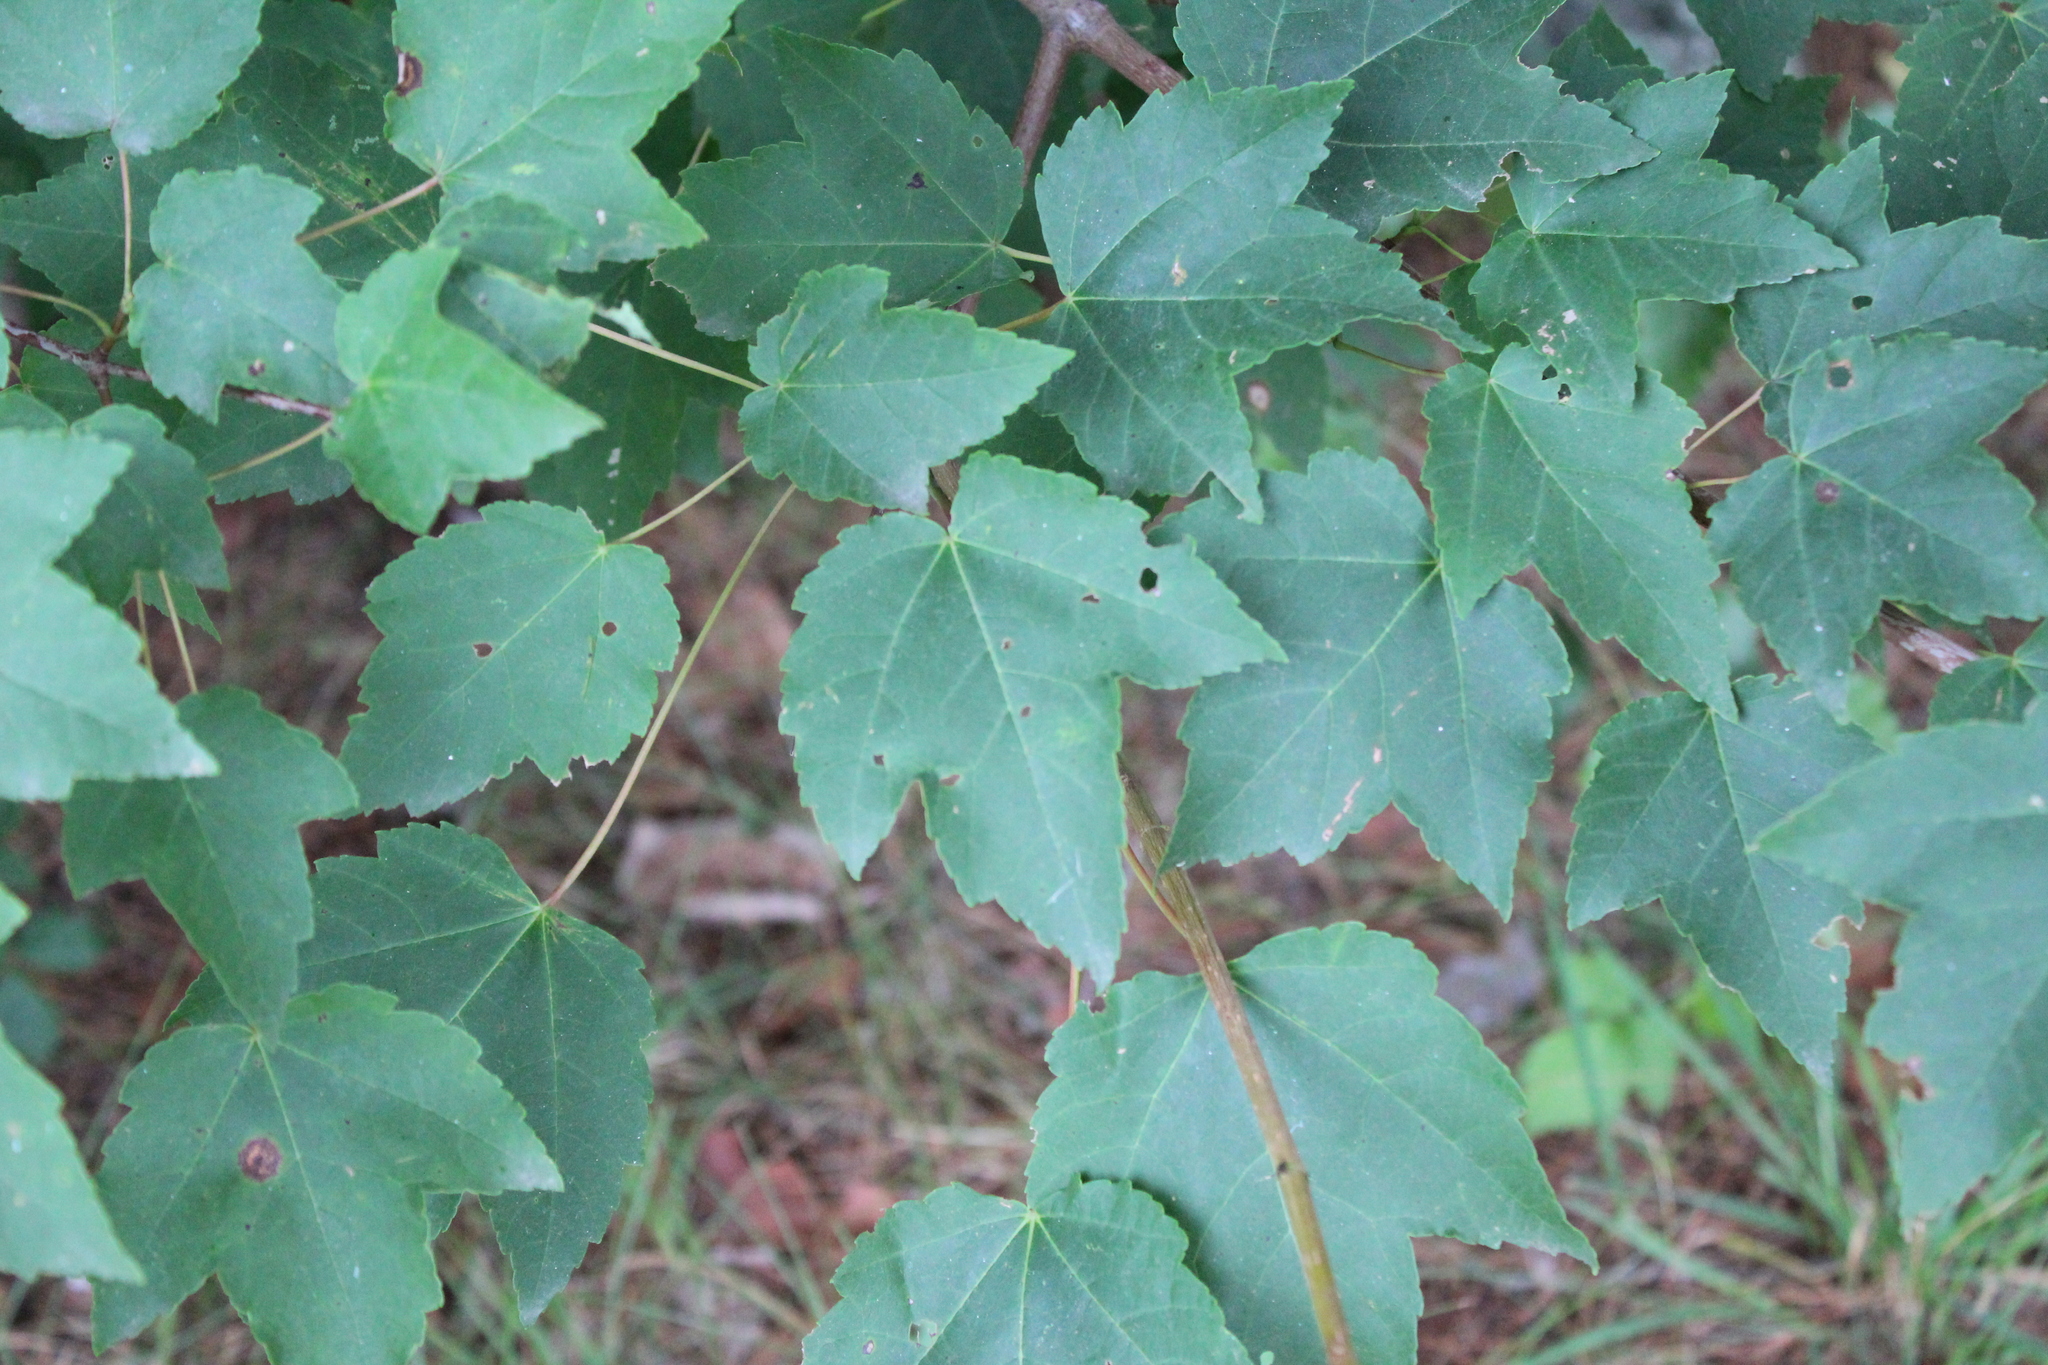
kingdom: Plantae
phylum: Tracheophyta
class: Magnoliopsida
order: Sapindales
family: Sapindaceae
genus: Acer
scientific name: Acer rubrum
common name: Red maple
